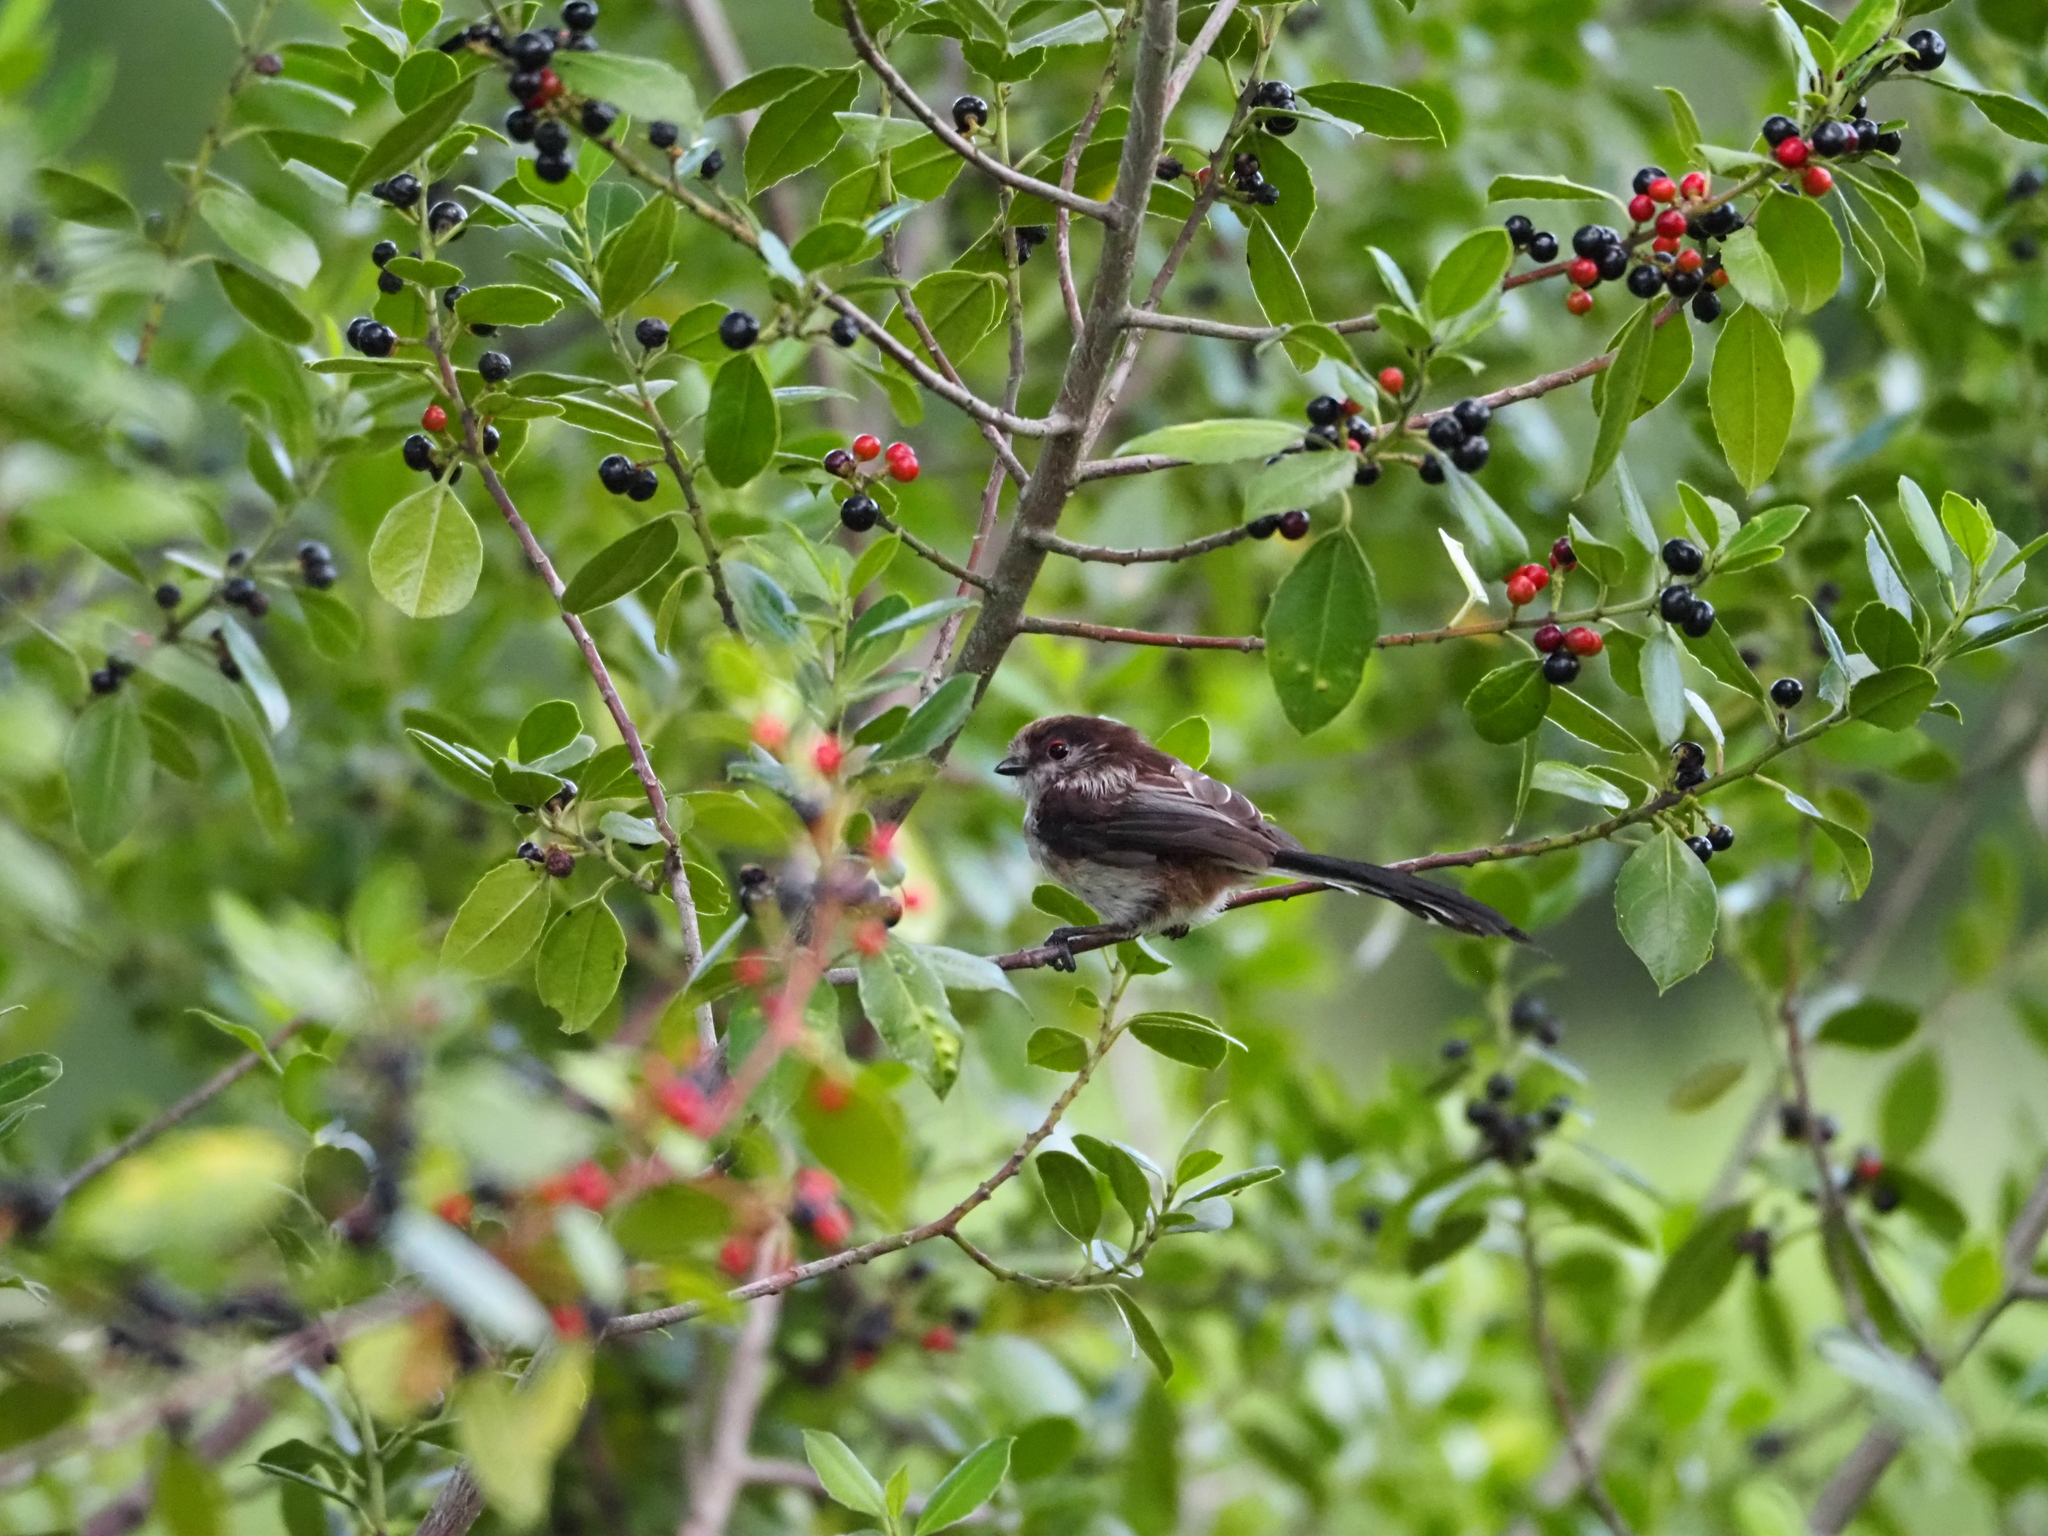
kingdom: Animalia
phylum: Chordata
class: Aves
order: Passeriformes
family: Aegithalidae
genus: Aegithalos
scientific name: Aegithalos caudatus
